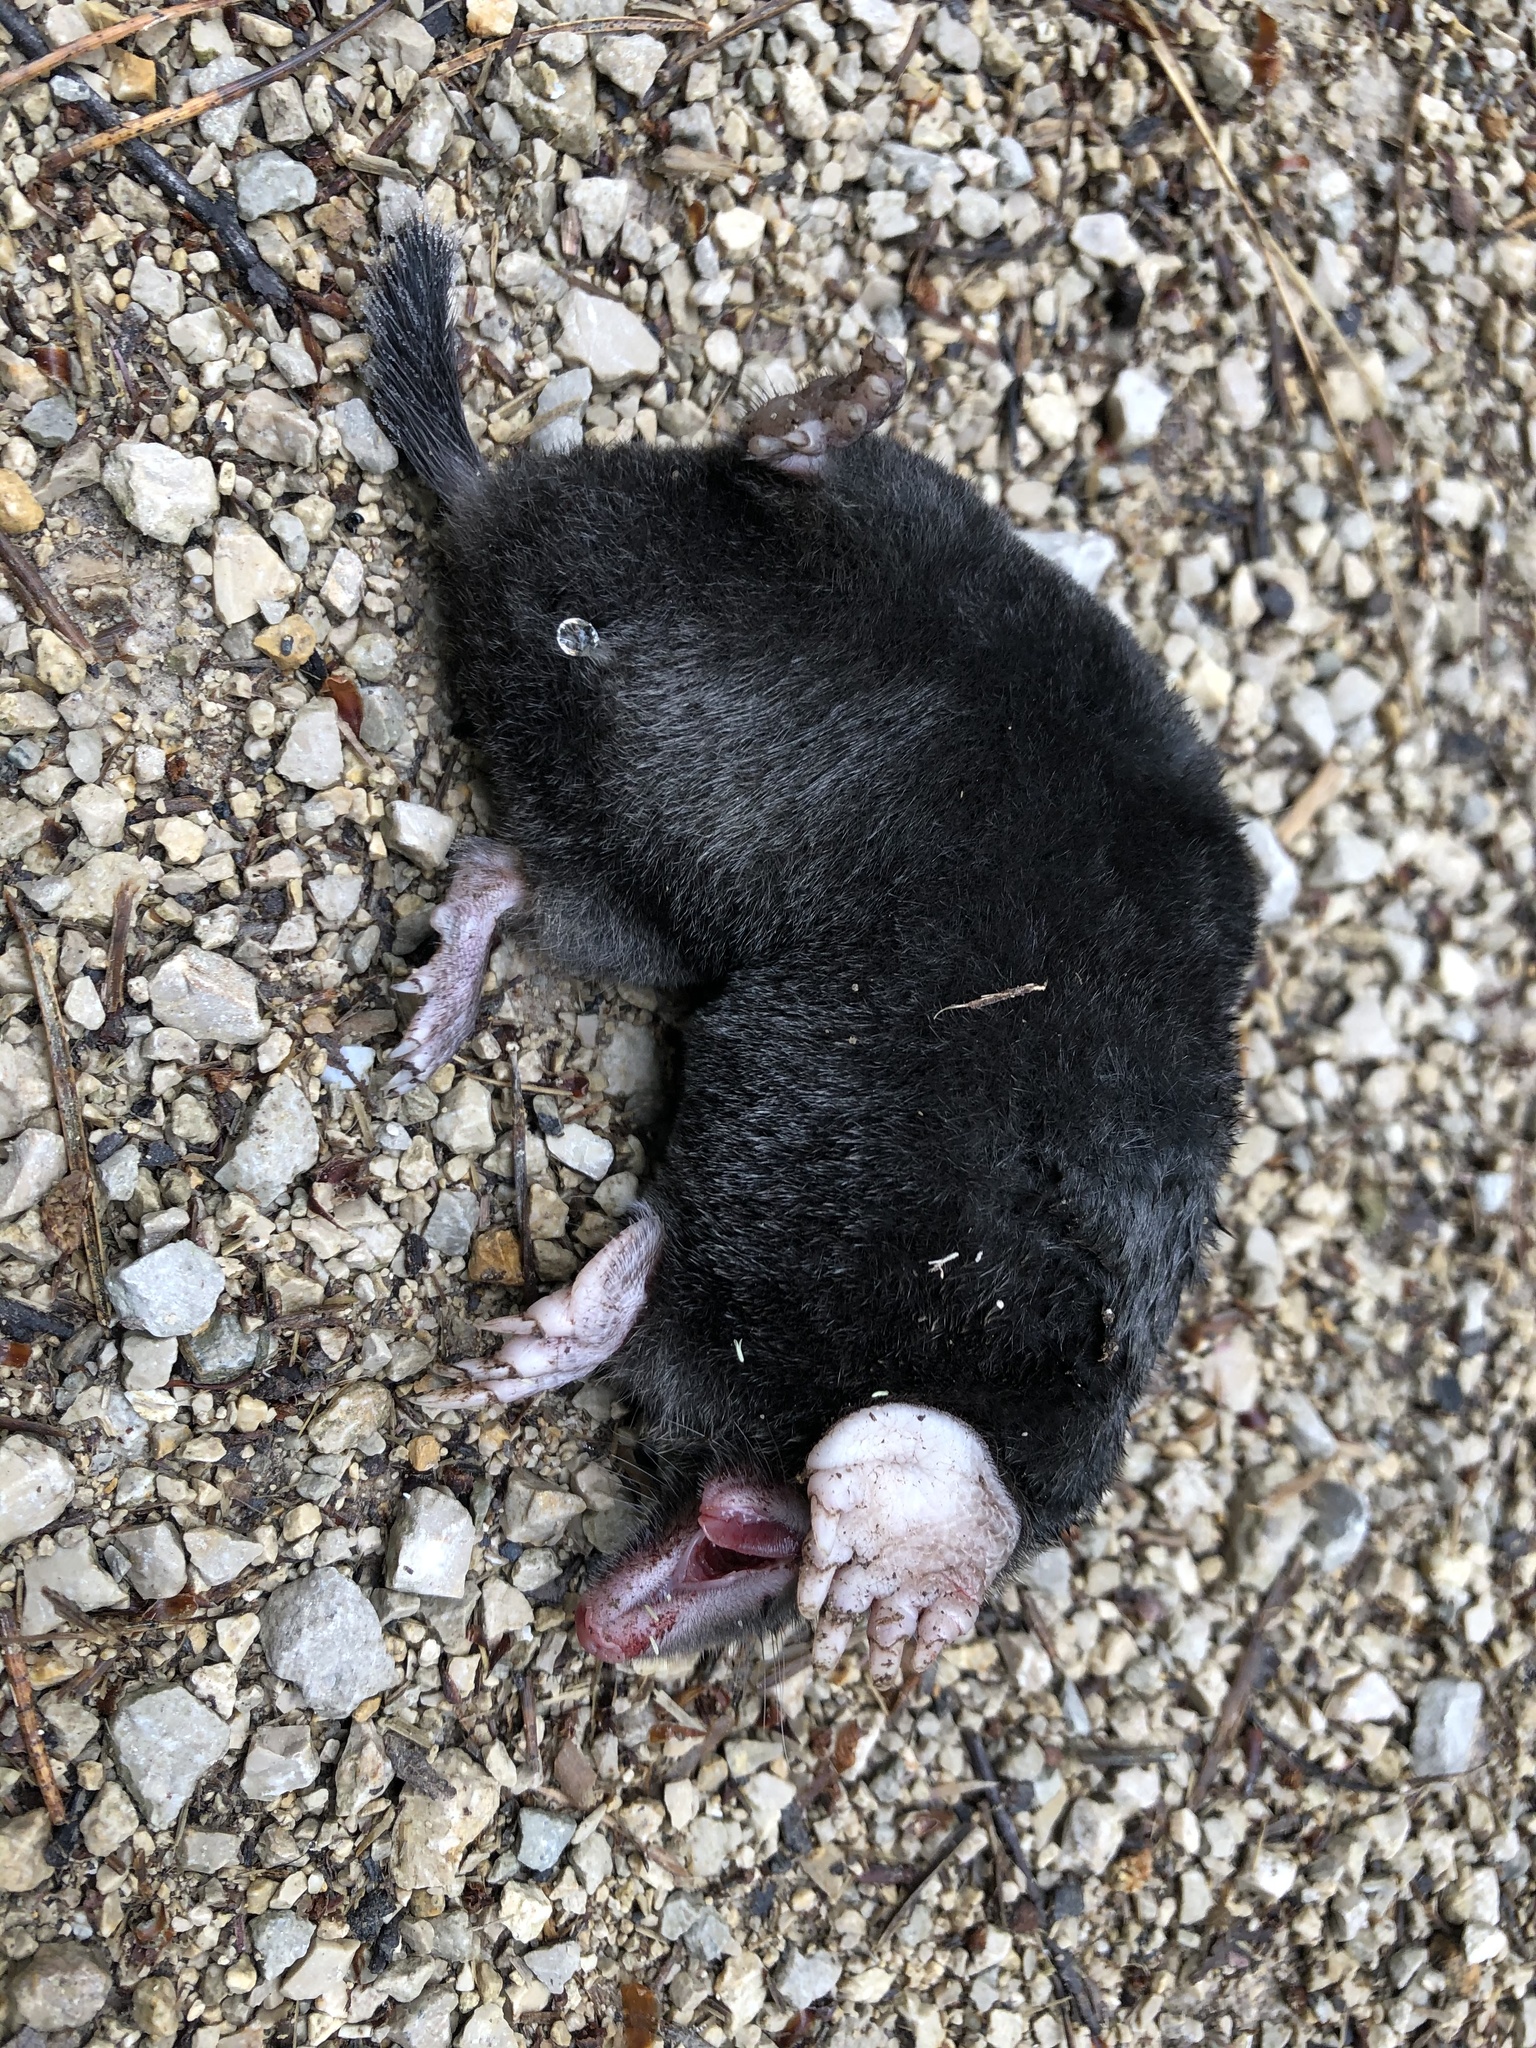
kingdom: Animalia
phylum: Chordata
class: Mammalia
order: Soricomorpha
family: Talpidae
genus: Talpa
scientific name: Talpa europaea
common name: European mole
